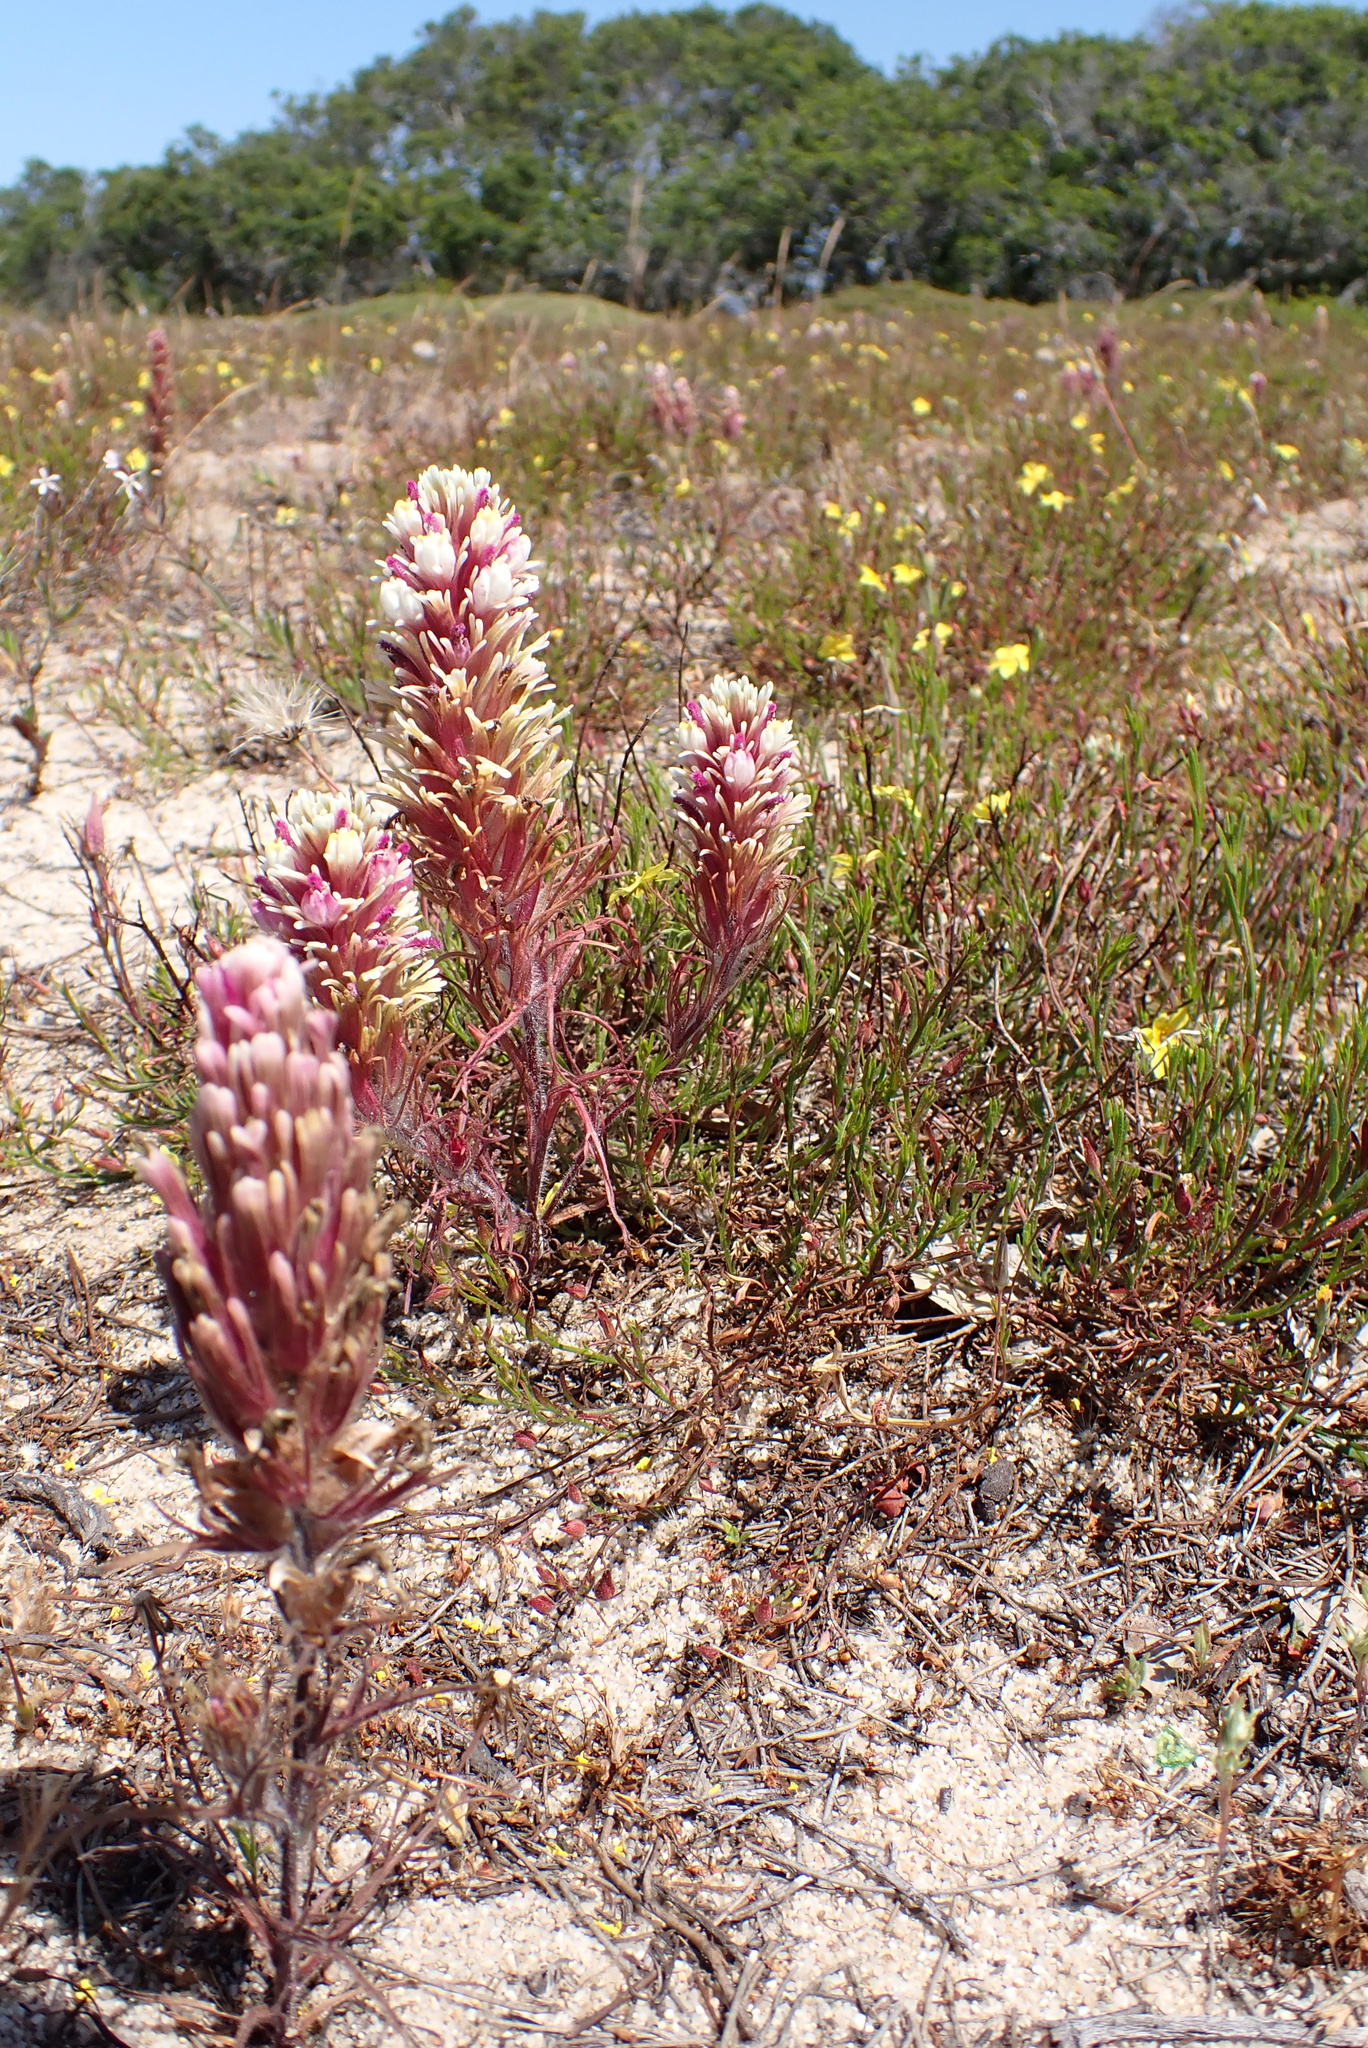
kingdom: Plantae
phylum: Tracheophyta
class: Magnoliopsida
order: Lamiales
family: Orobanchaceae
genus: Castilleja
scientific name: Castilleja exserta
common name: Purple owl-clover
